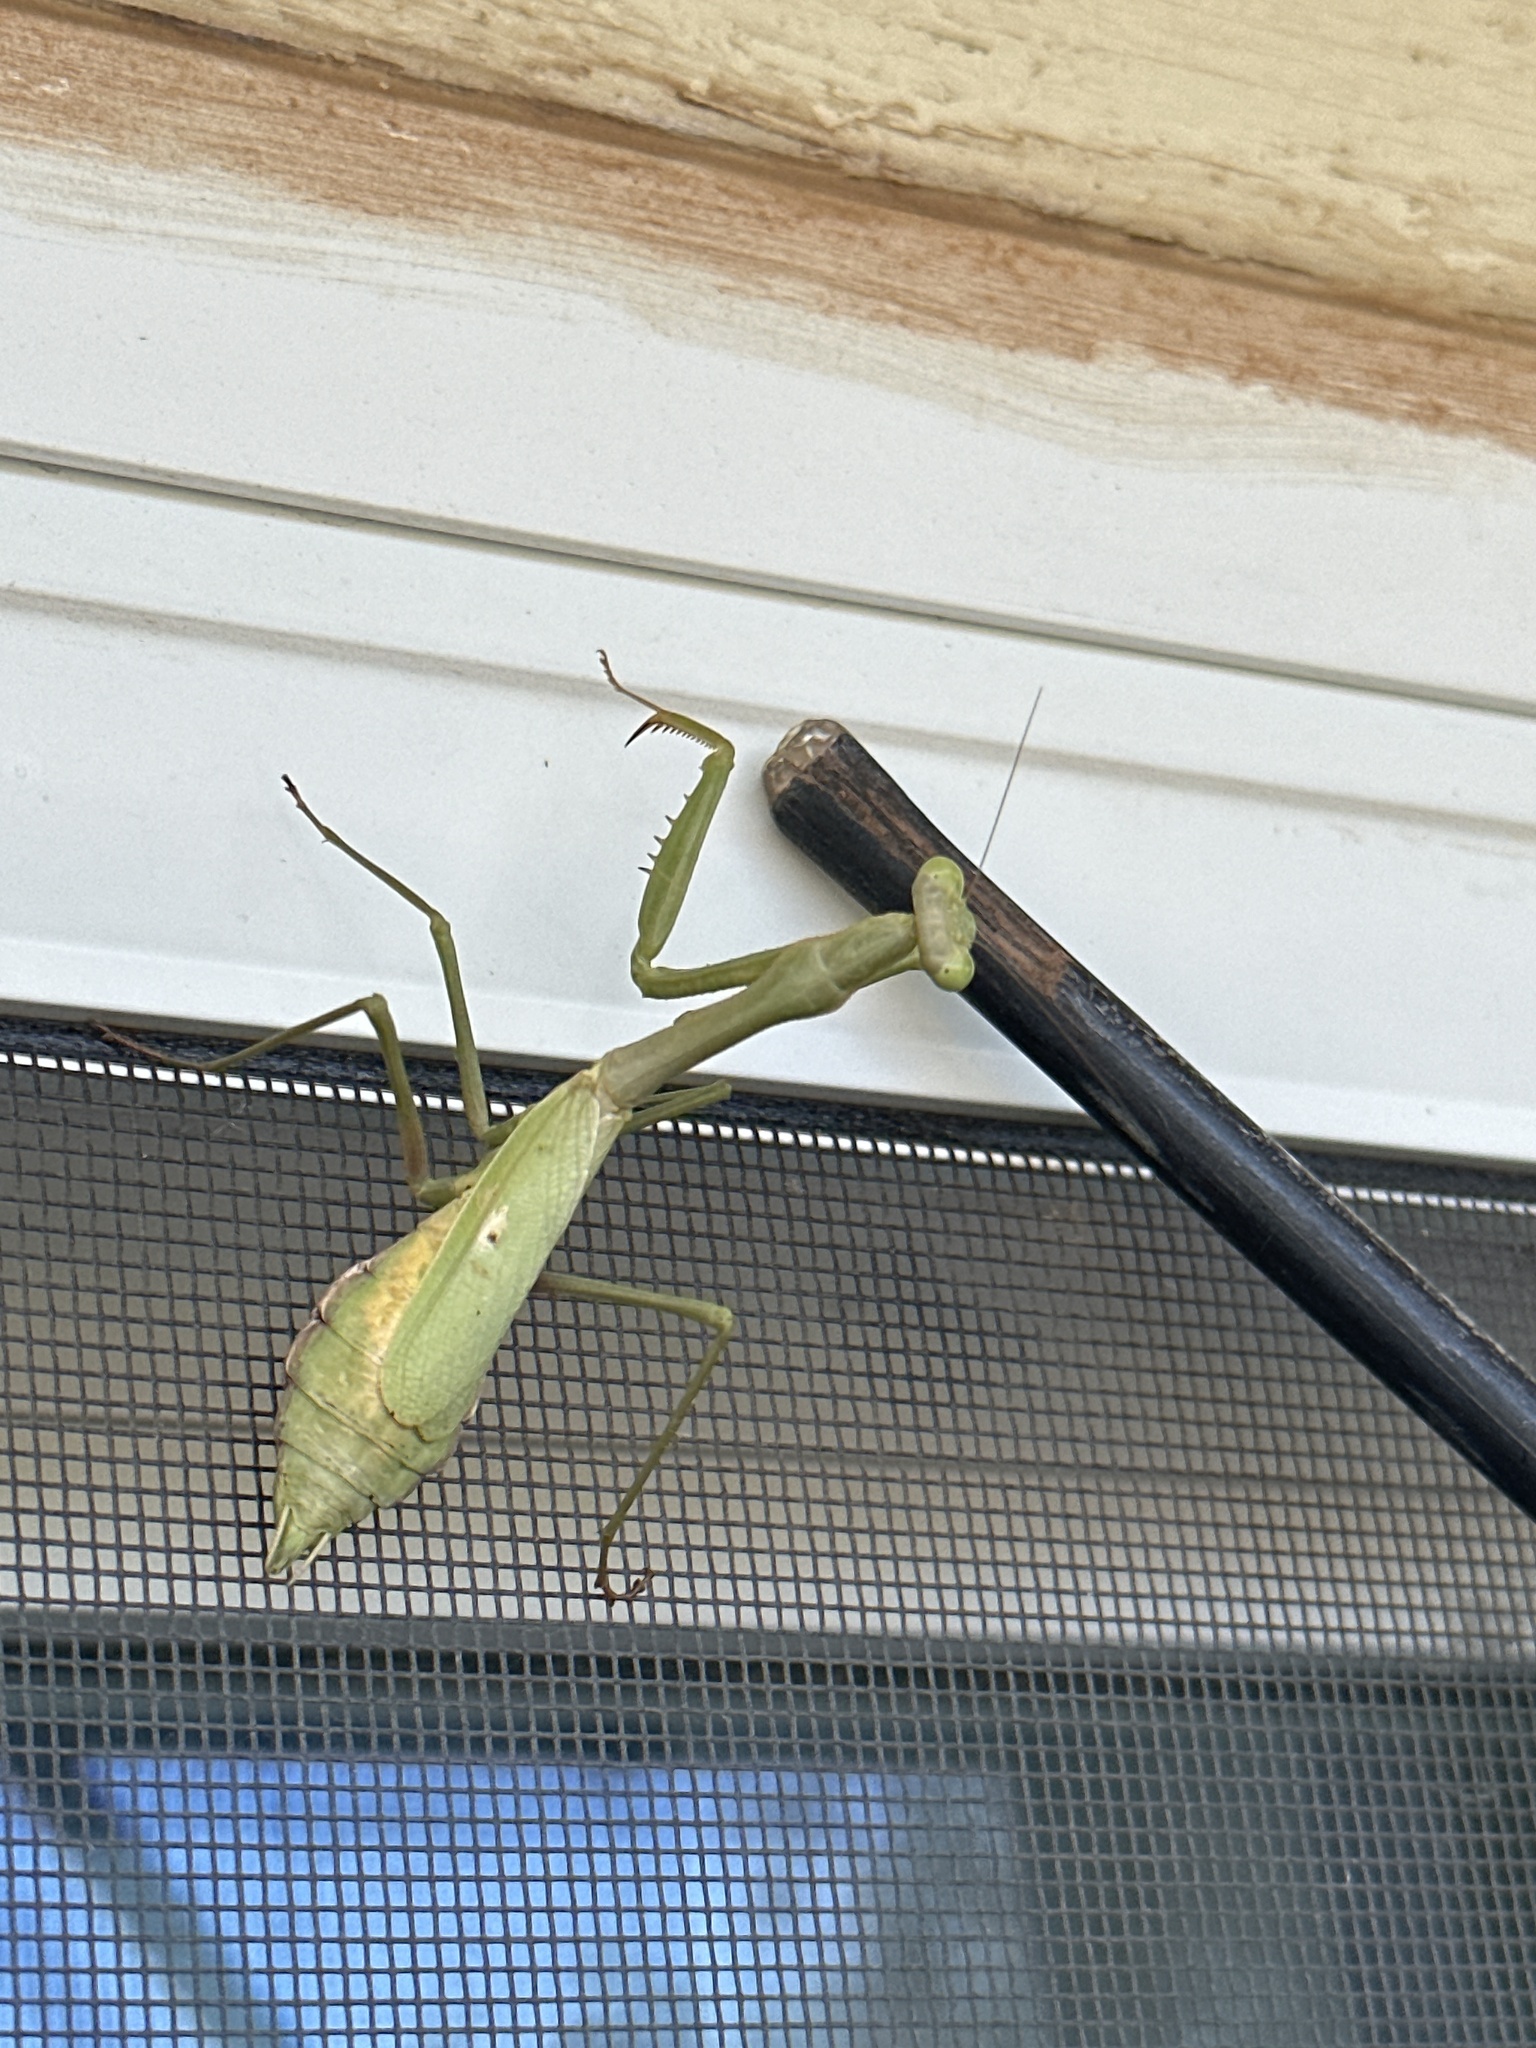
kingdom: Animalia
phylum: Arthropoda
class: Insecta
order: Mantodea
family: Mantidae
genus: Stagmomantis
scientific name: Stagmomantis carolina
